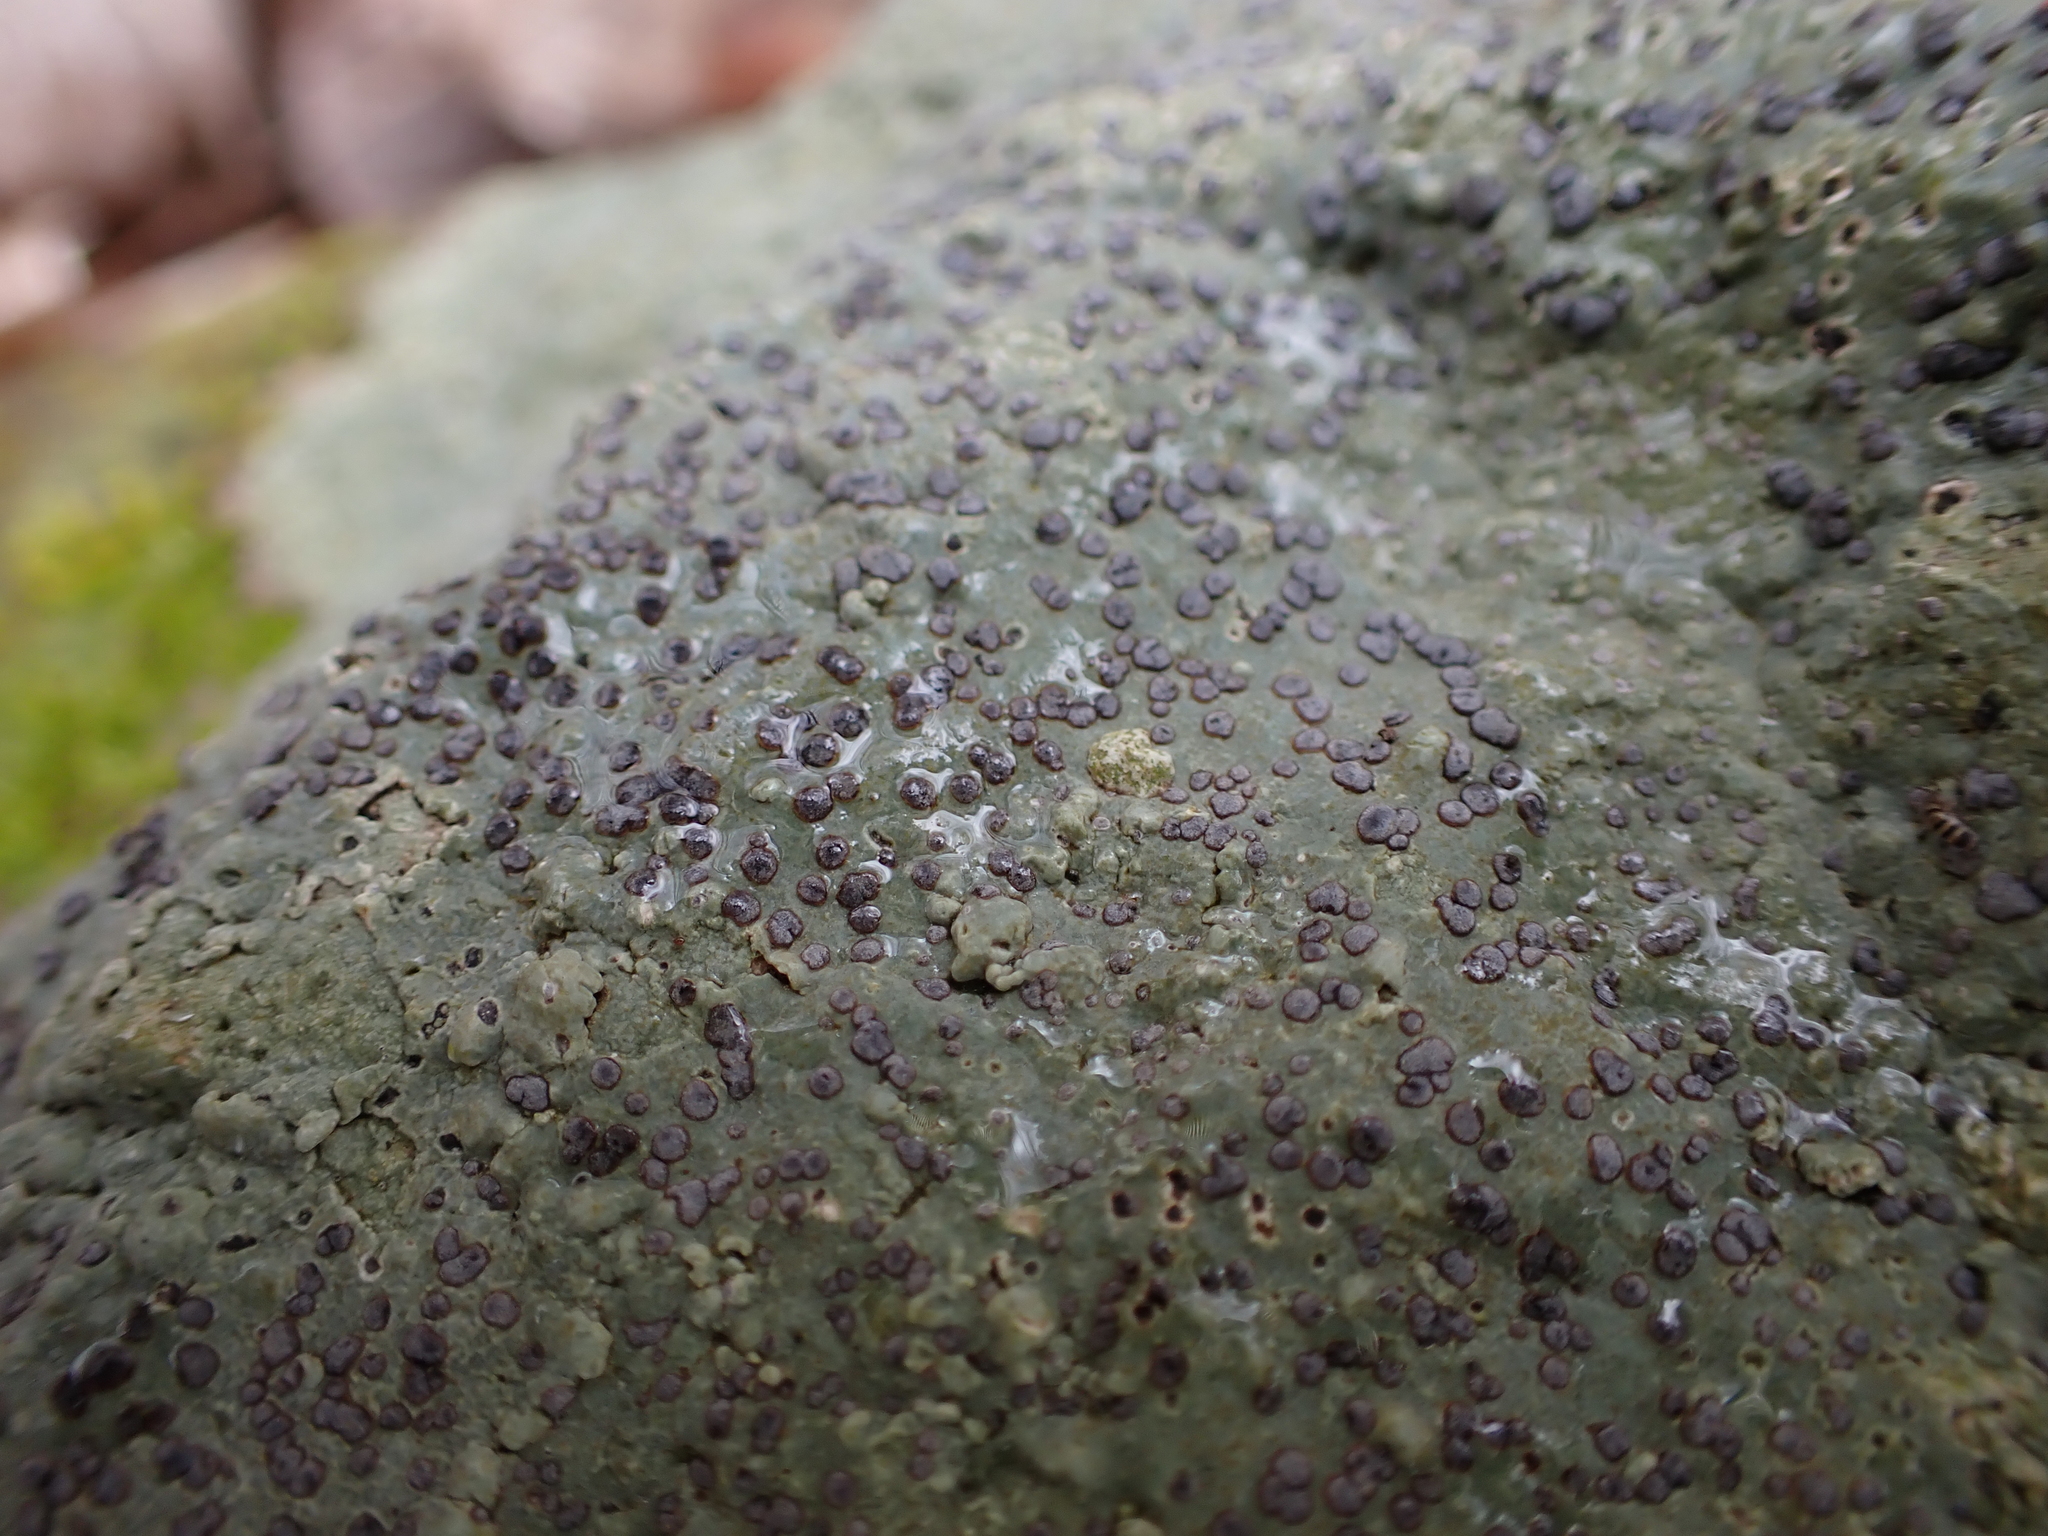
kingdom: Fungi
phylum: Ascomycota
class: Lecanoromycetes
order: Lecideales
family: Lecideaceae
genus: Porpidia
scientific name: Porpidia albocaerulescens
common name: Smokey-eyed boulder lichen
